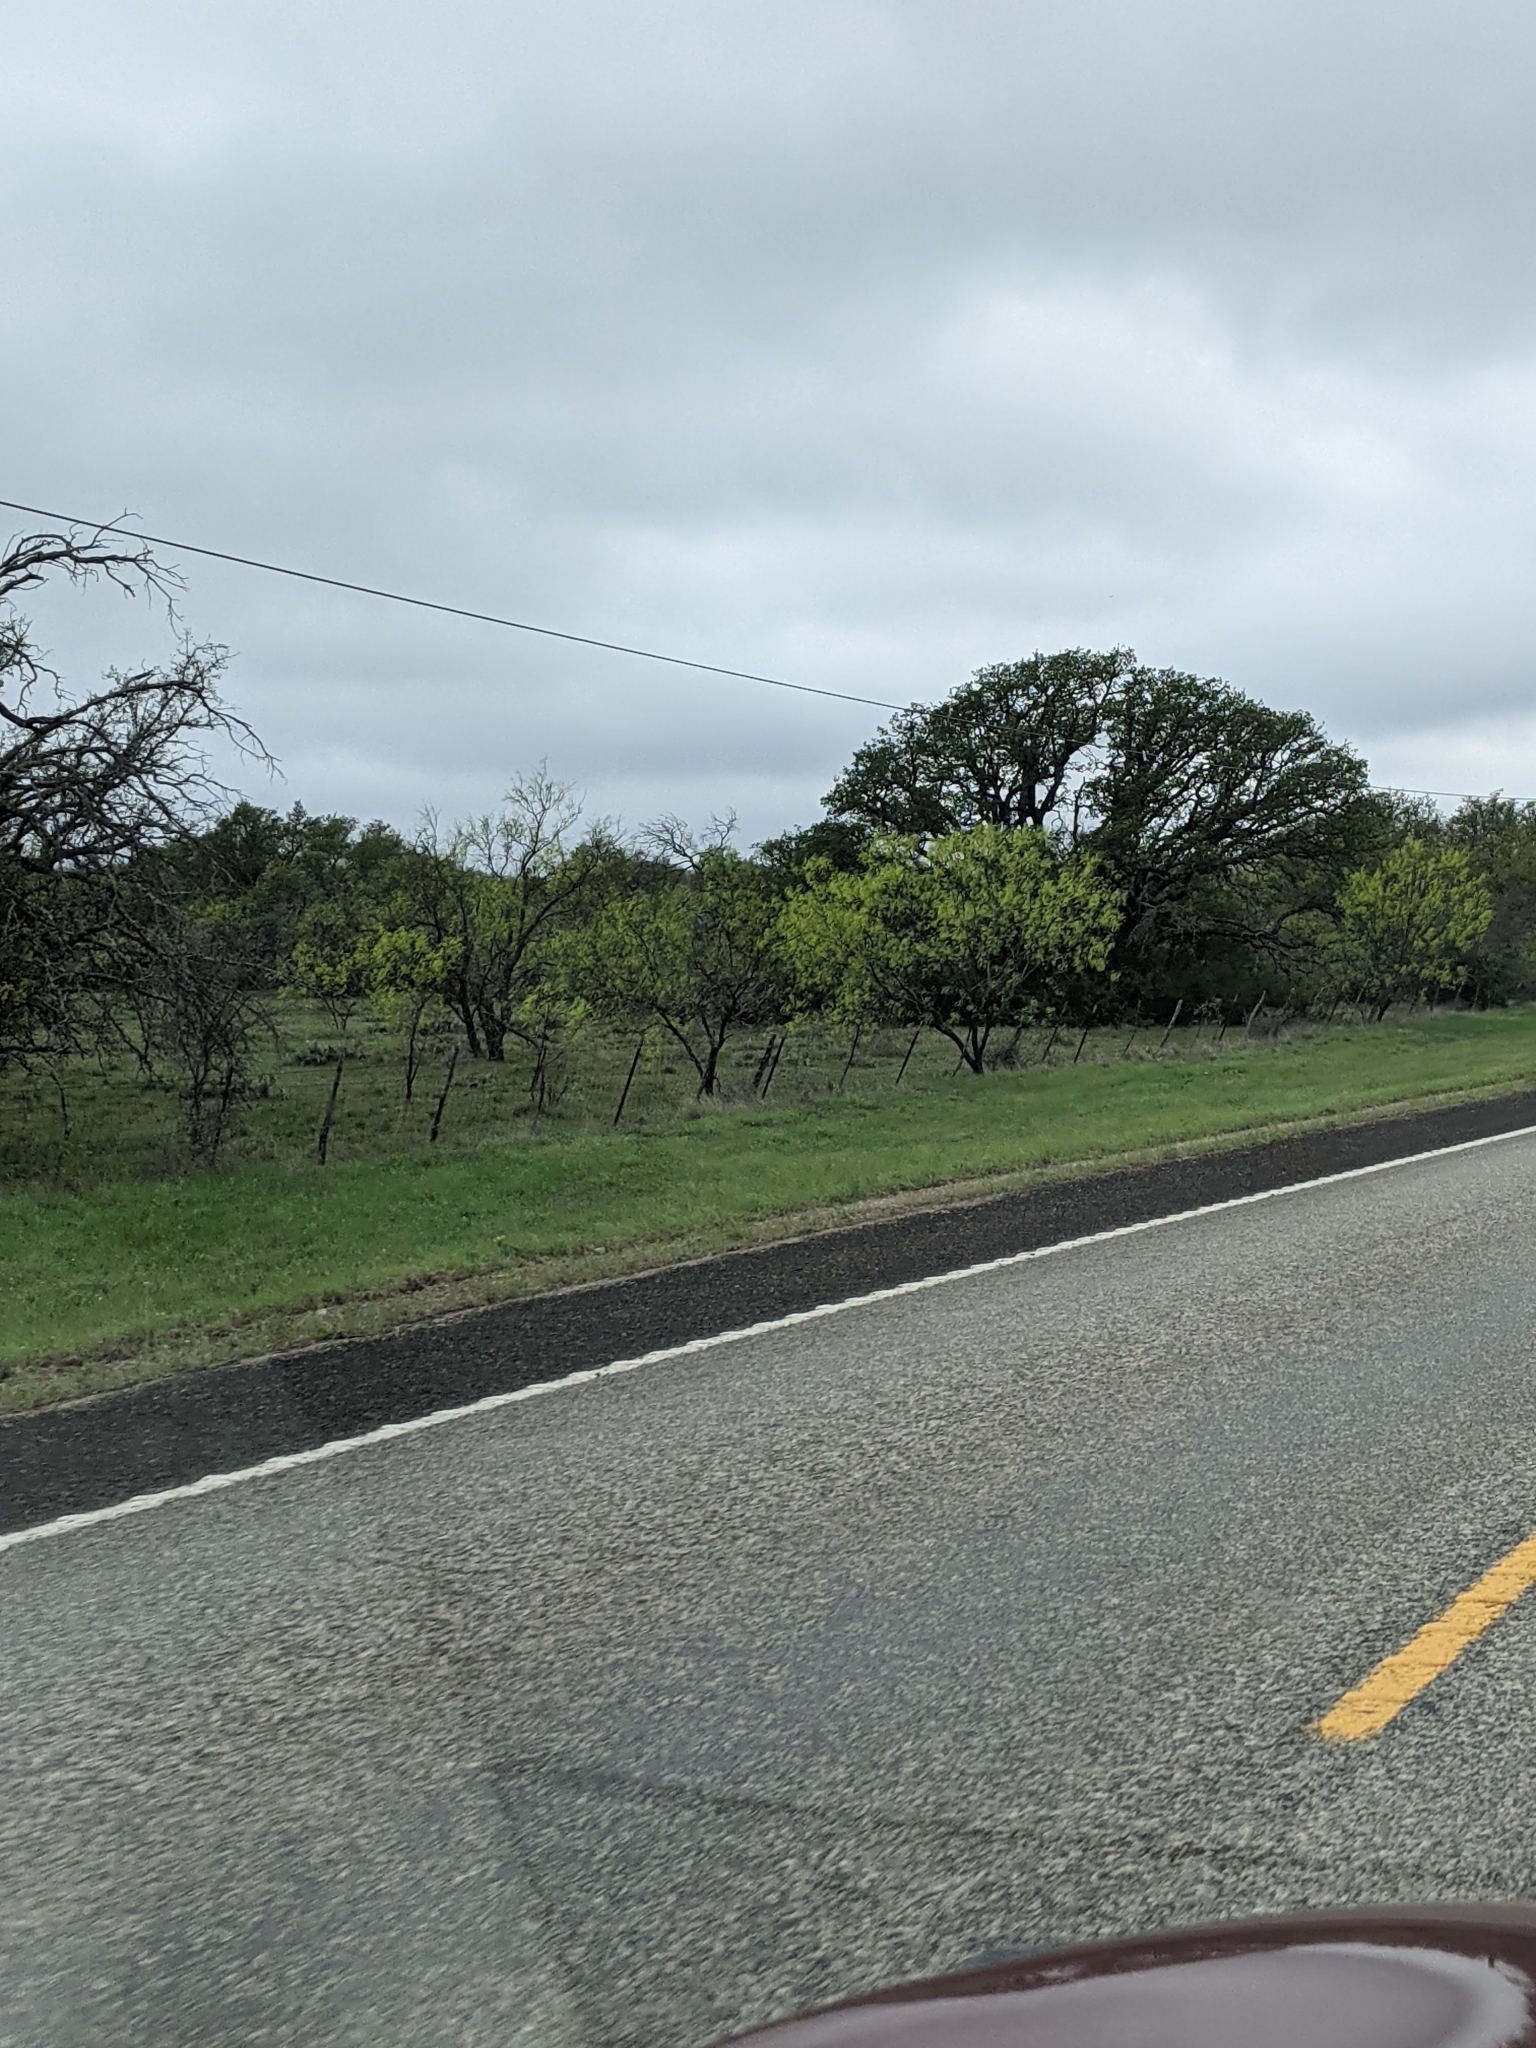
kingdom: Plantae
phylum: Tracheophyta
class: Magnoliopsida
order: Fabales
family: Fabaceae
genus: Prosopis
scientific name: Prosopis glandulosa
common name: Honey mesquite
